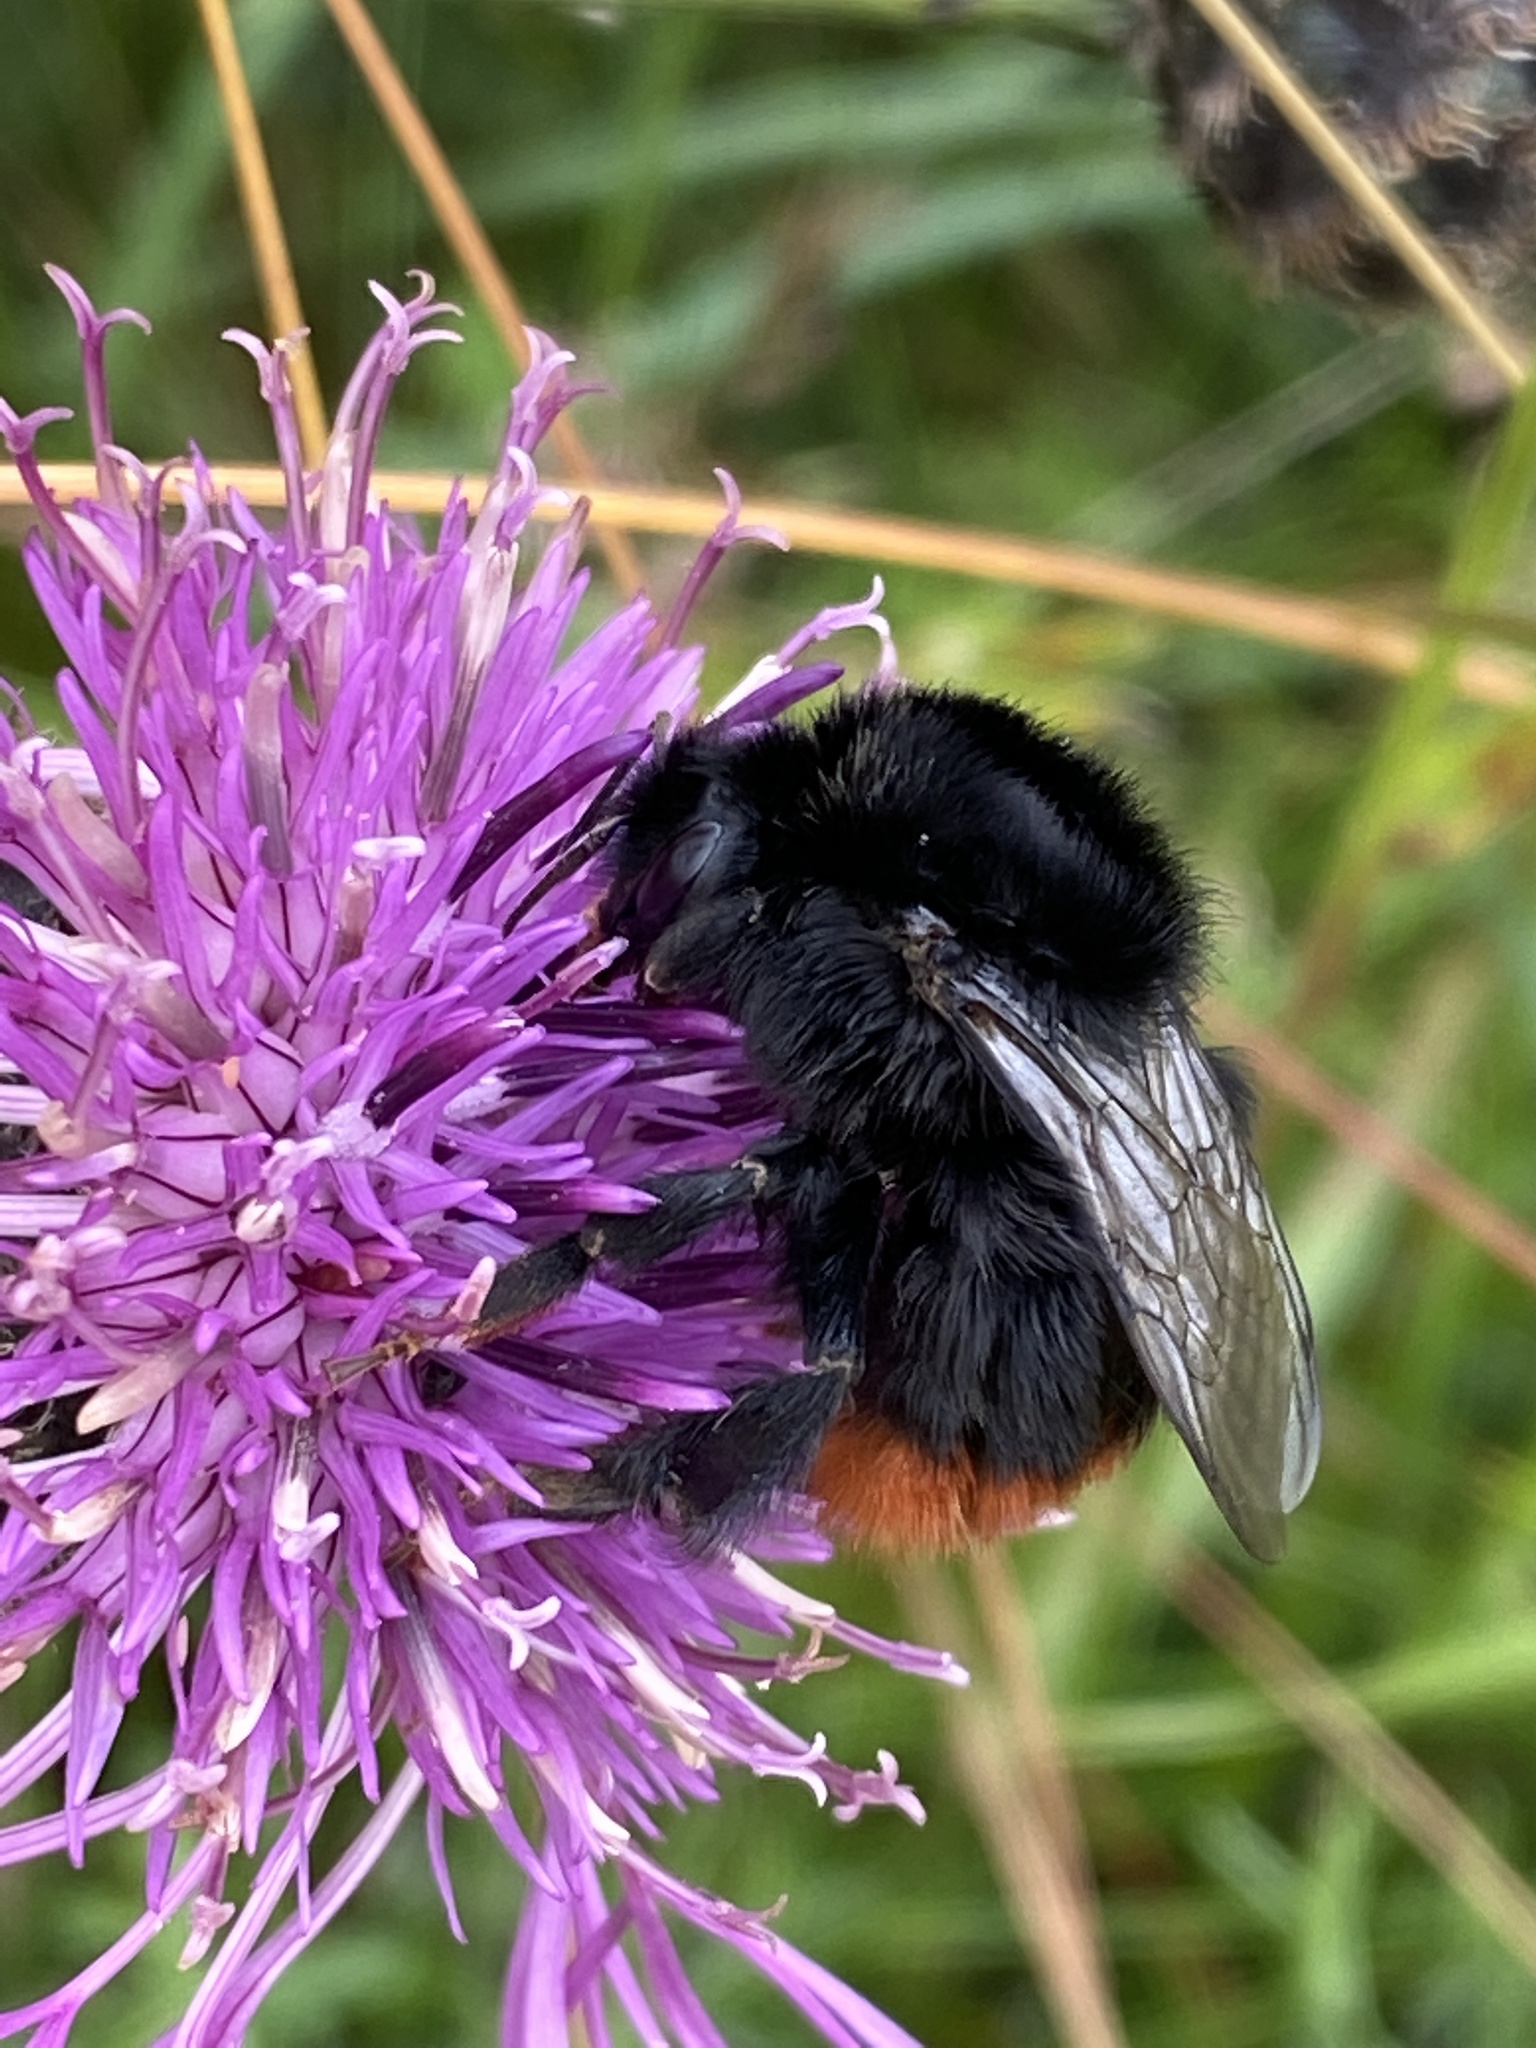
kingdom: Animalia
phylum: Arthropoda
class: Insecta
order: Hymenoptera
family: Apidae
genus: Bombus
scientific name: Bombus lapidarius
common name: Large red-tailed humble-bee
